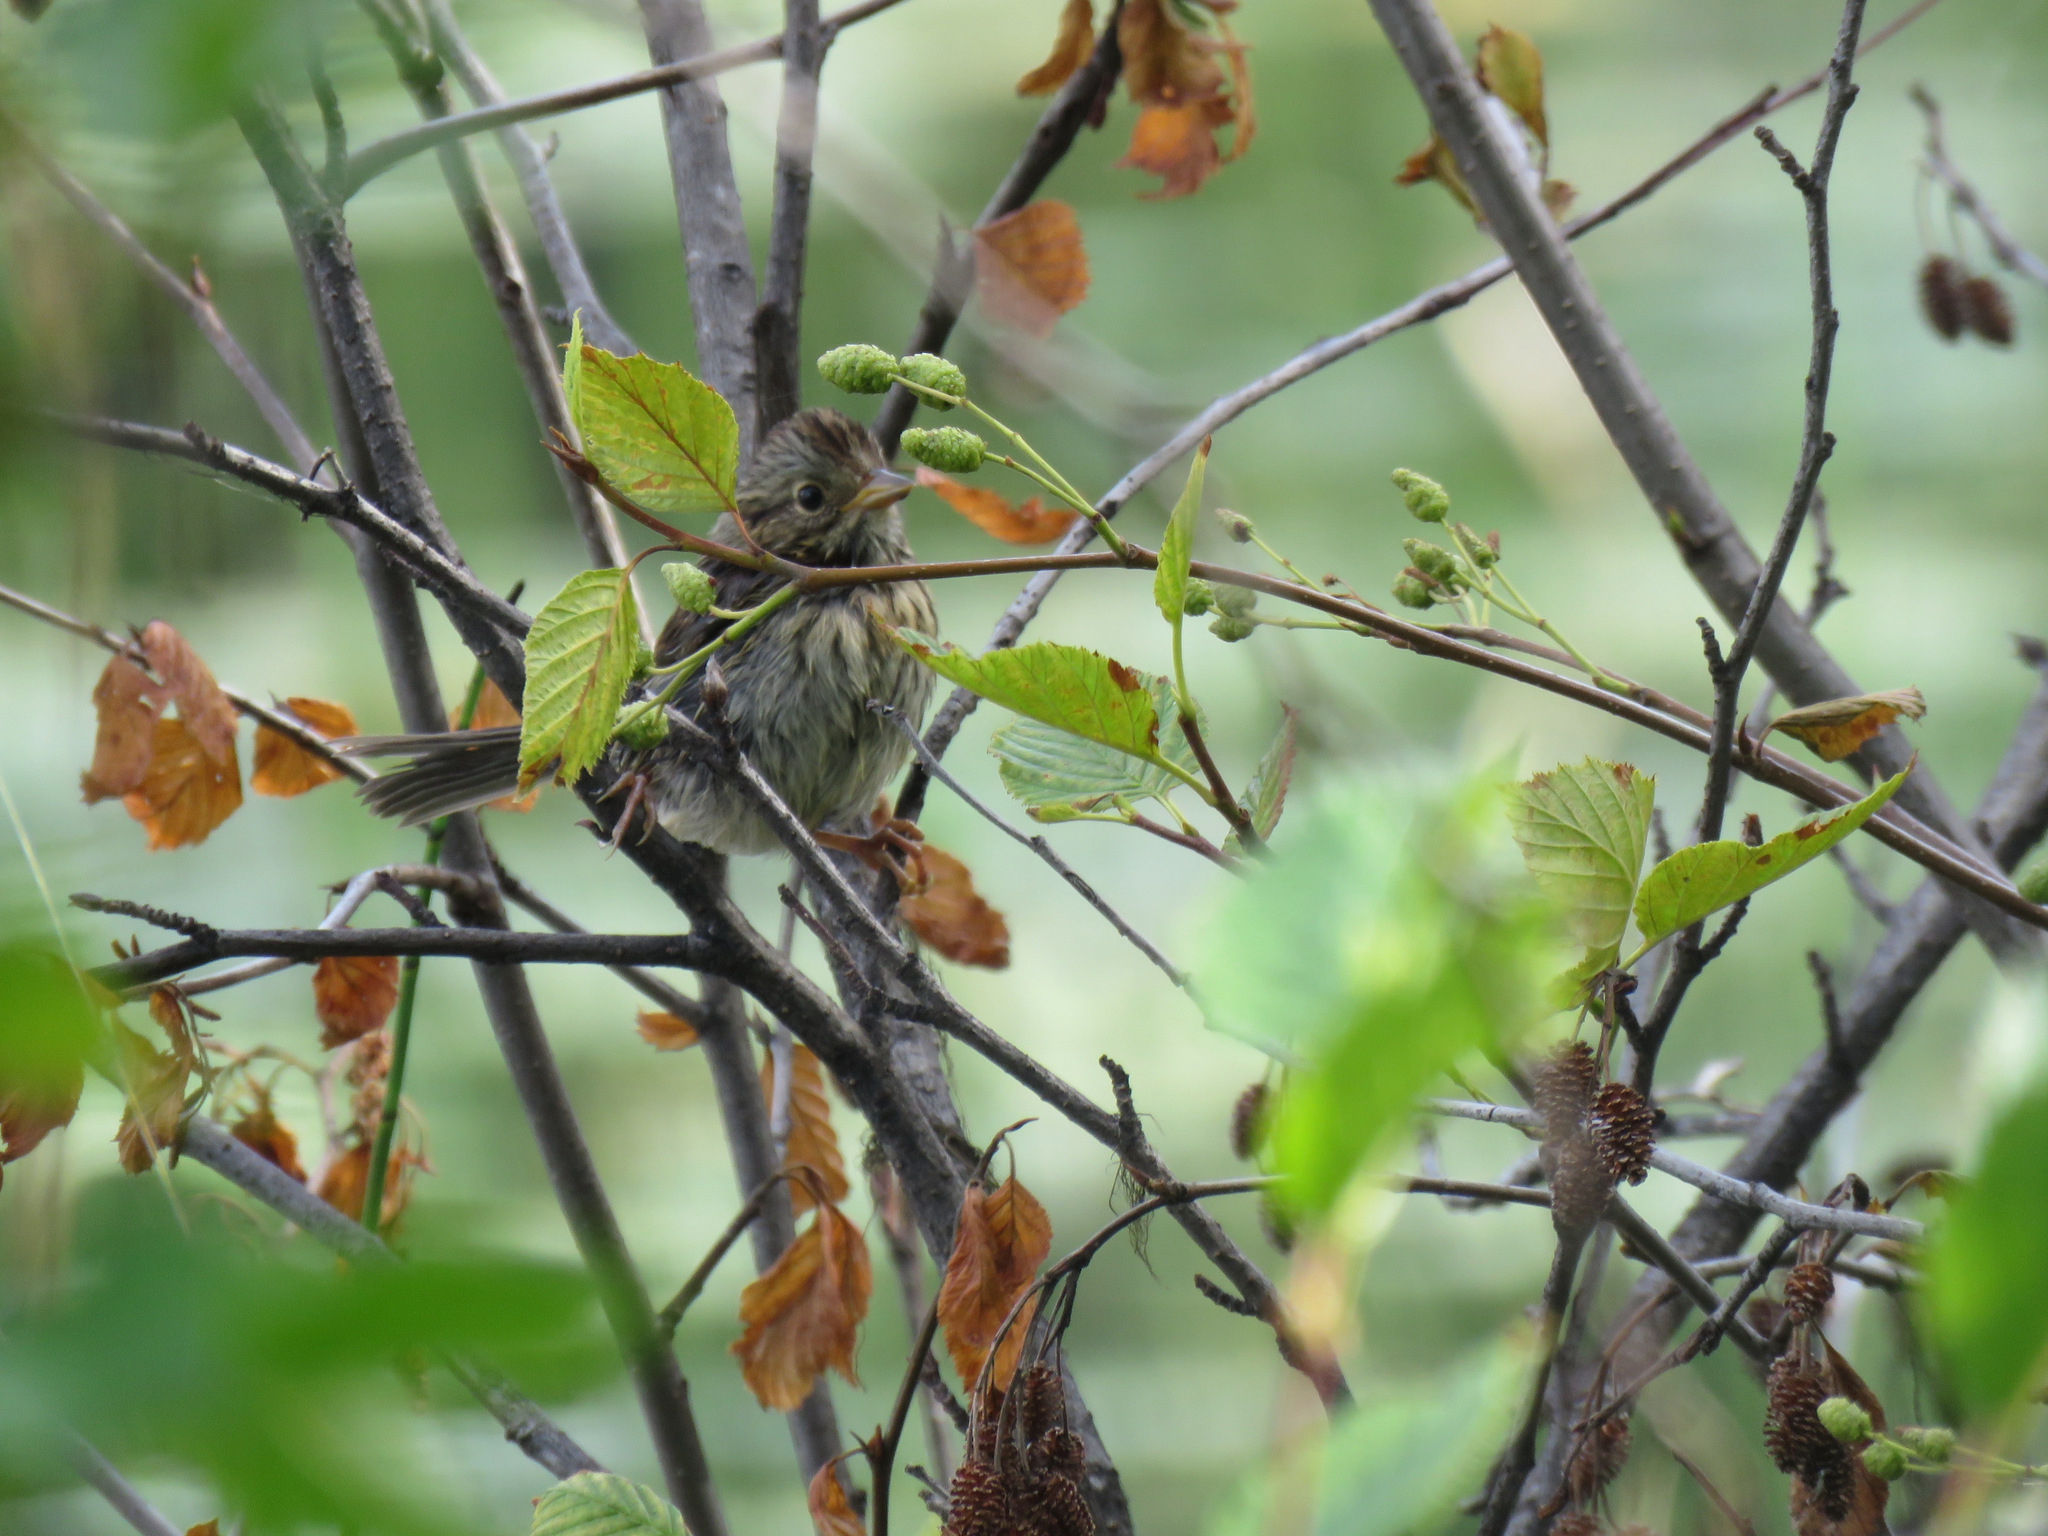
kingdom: Animalia
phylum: Chordata
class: Aves
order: Passeriformes
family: Passerellidae
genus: Melospiza
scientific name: Melospiza lincolnii
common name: Lincoln's sparrow
